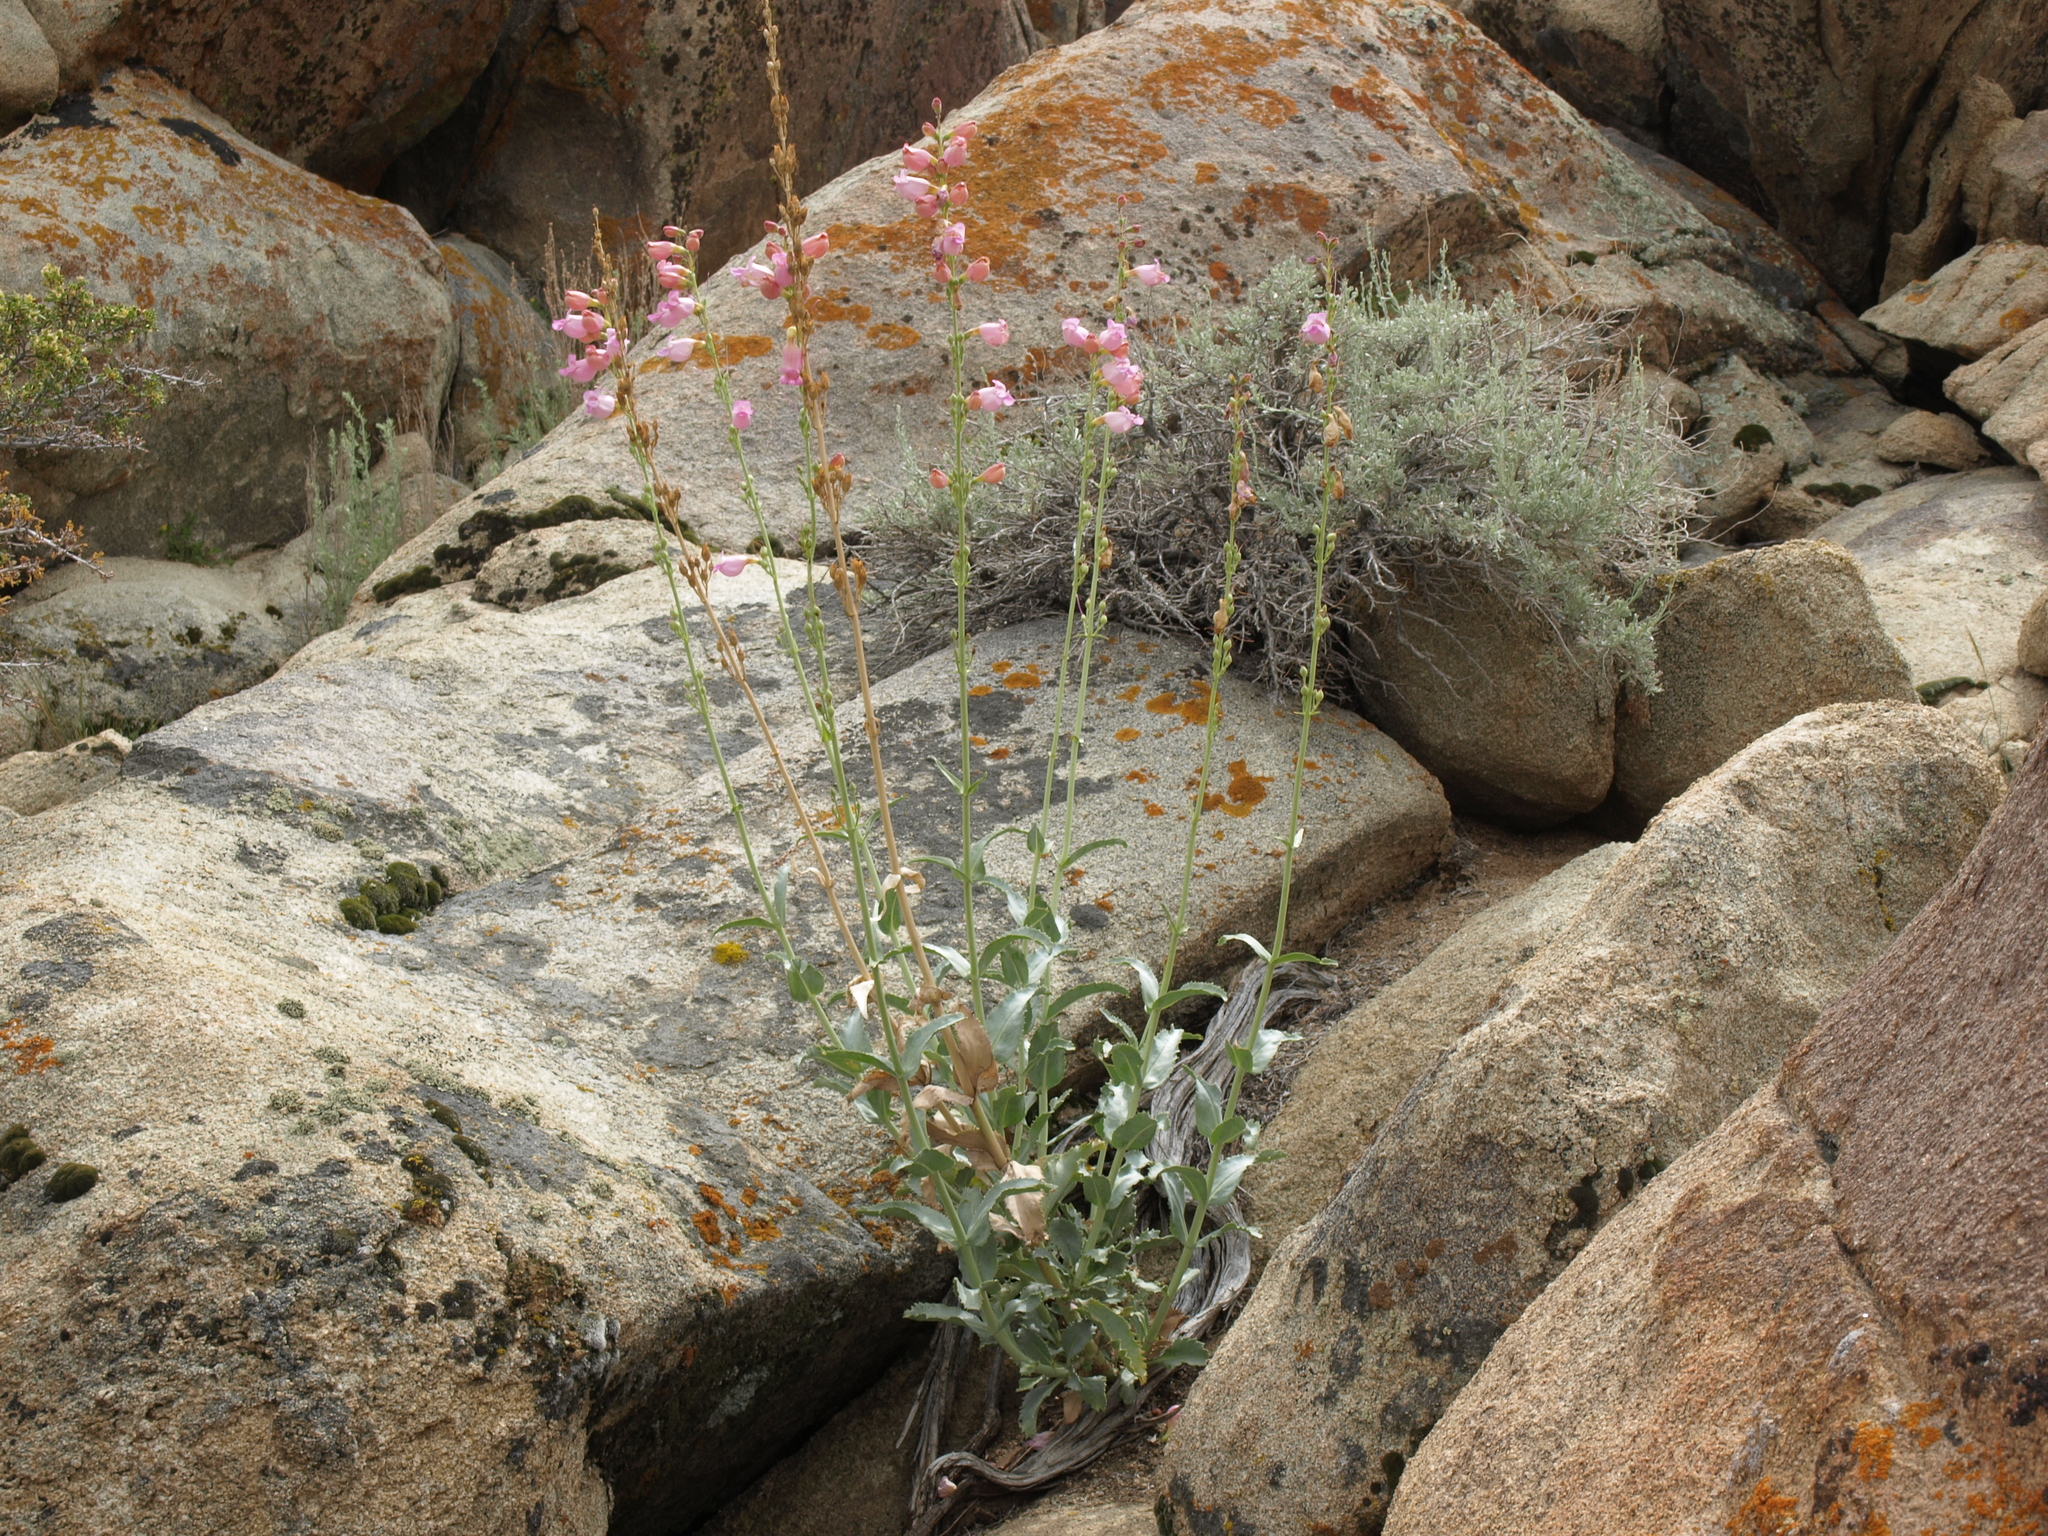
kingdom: Plantae
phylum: Tracheophyta
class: Magnoliopsida
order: Lamiales
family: Plantaginaceae
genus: Penstemon
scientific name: Penstemon floridus
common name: Panamint penstemon
